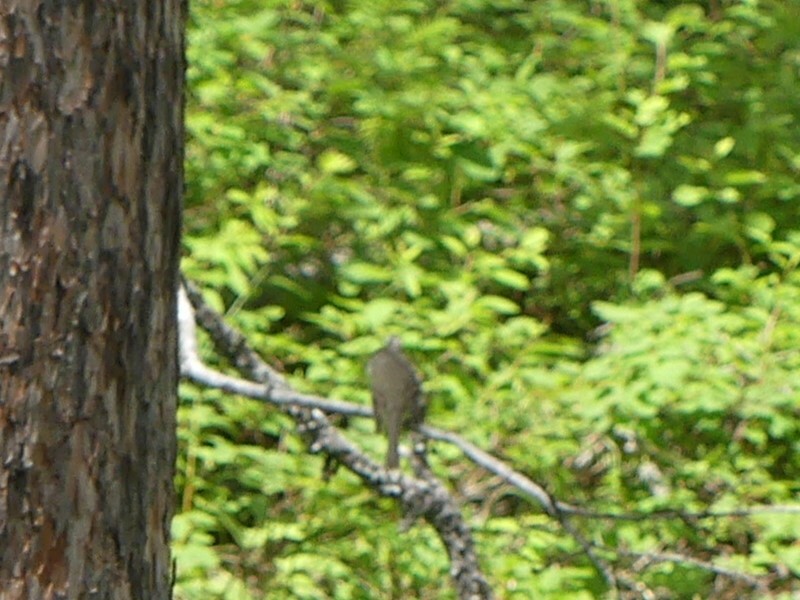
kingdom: Animalia
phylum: Chordata
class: Aves
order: Passeriformes
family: Tyrannidae
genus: Empidonax
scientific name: Empidonax difficilis
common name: Pacific-slope flycatcher
